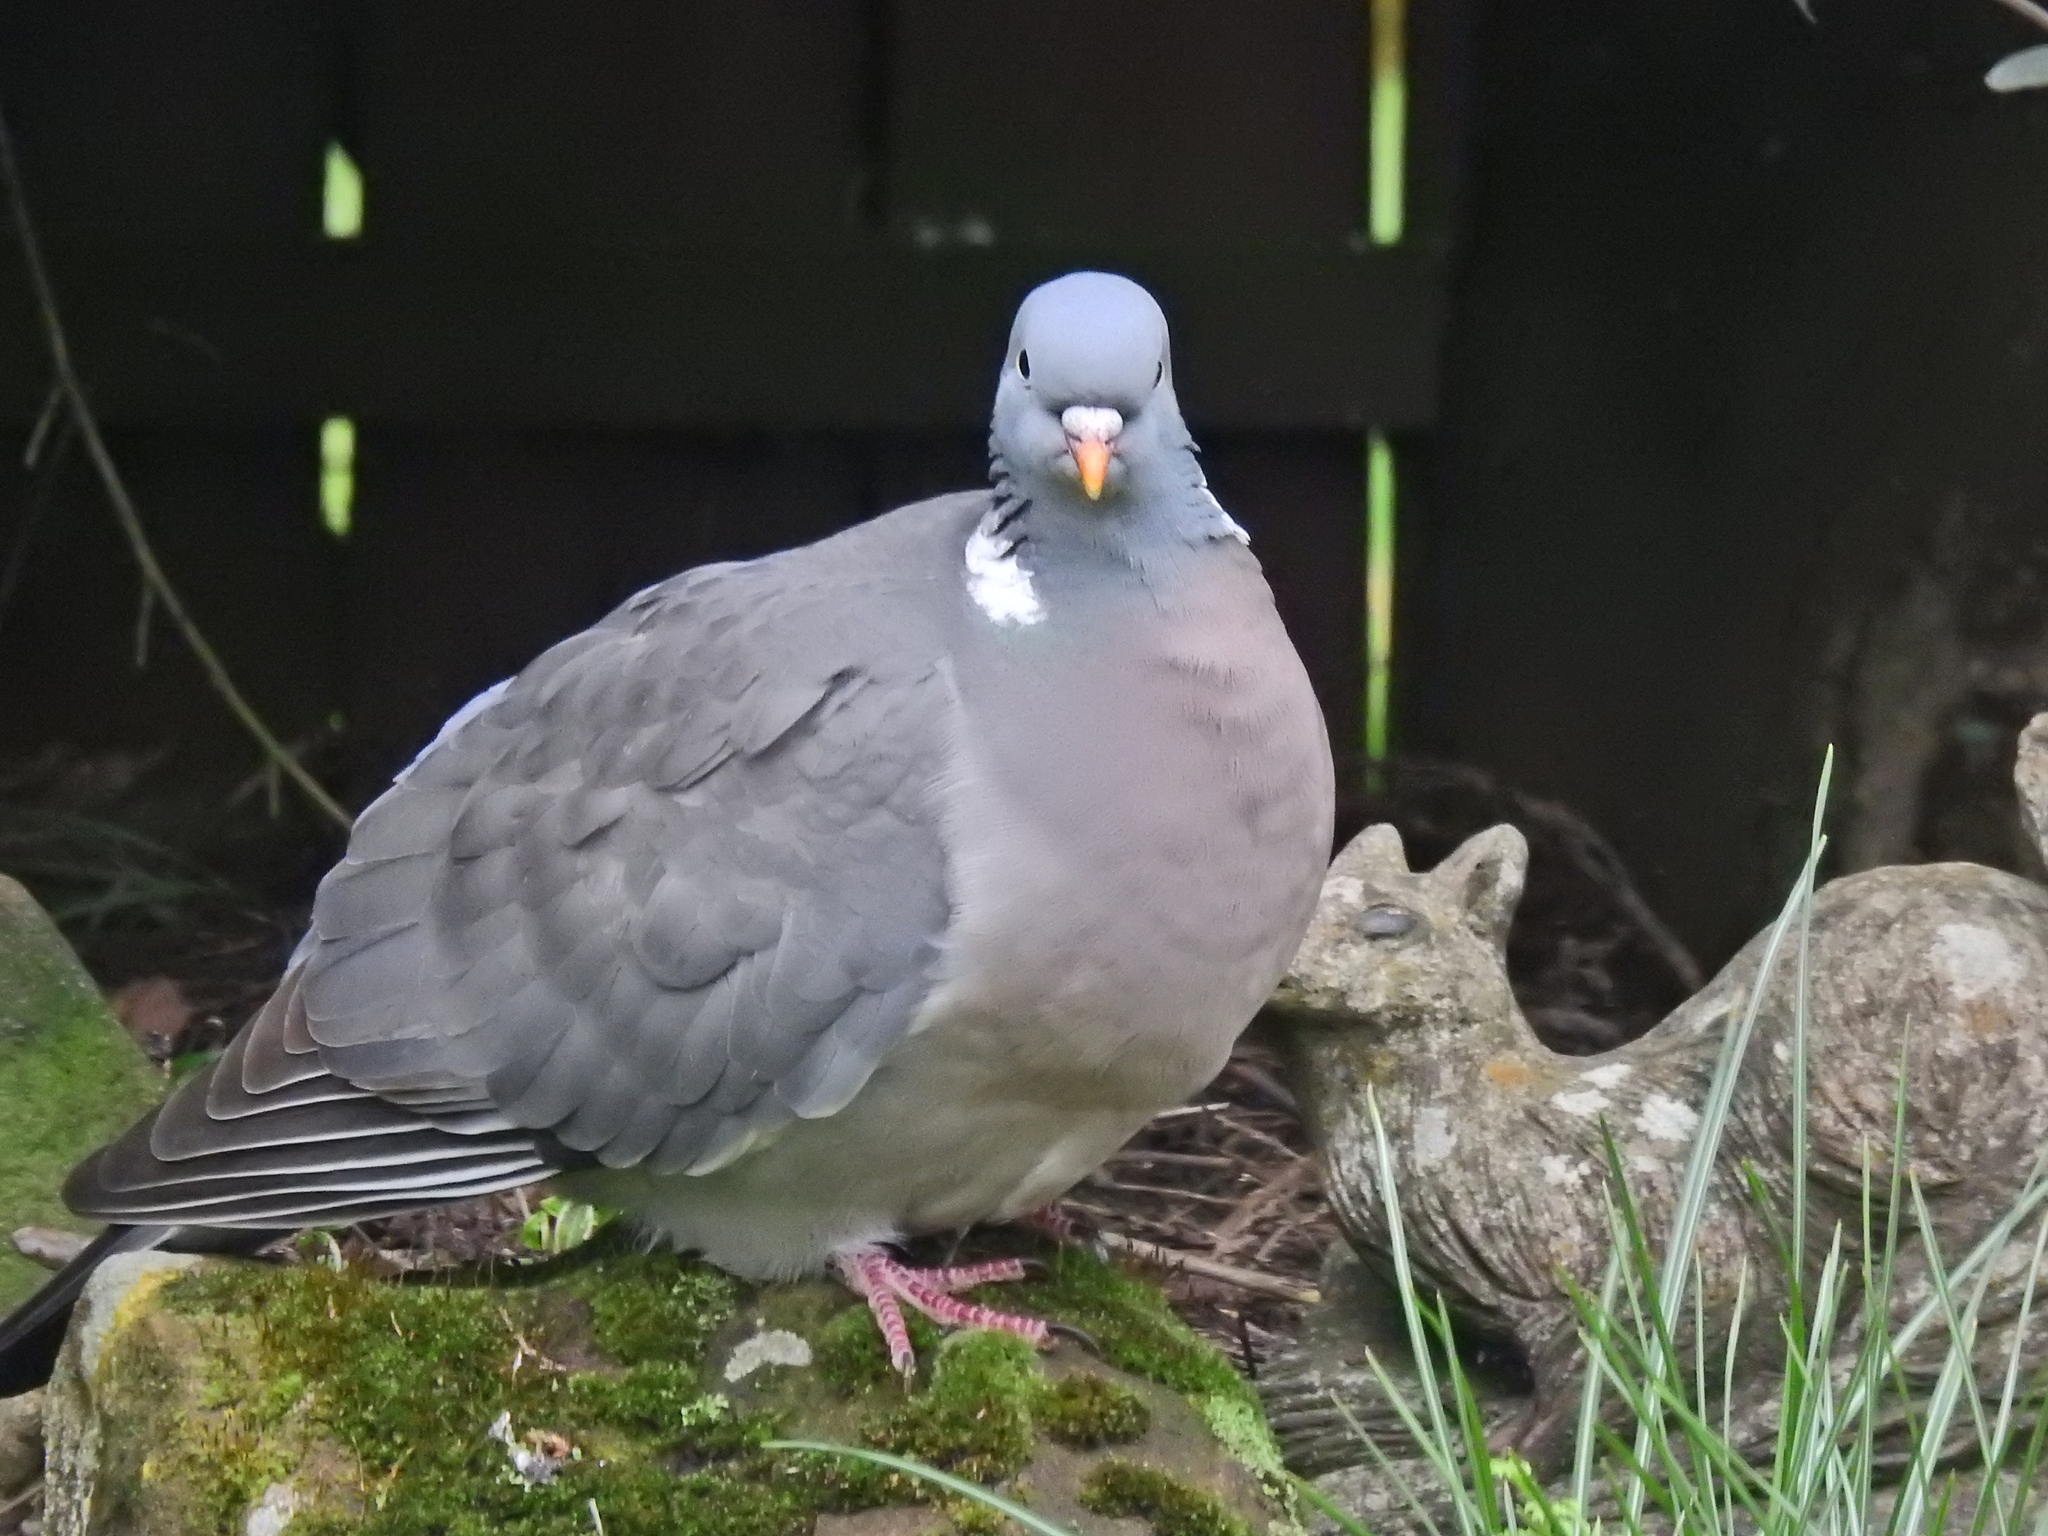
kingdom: Animalia
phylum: Chordata
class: Aves
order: Columbiformes
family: Columbidae
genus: Columba
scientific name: Columba palumbus
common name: Common wood pigeon
